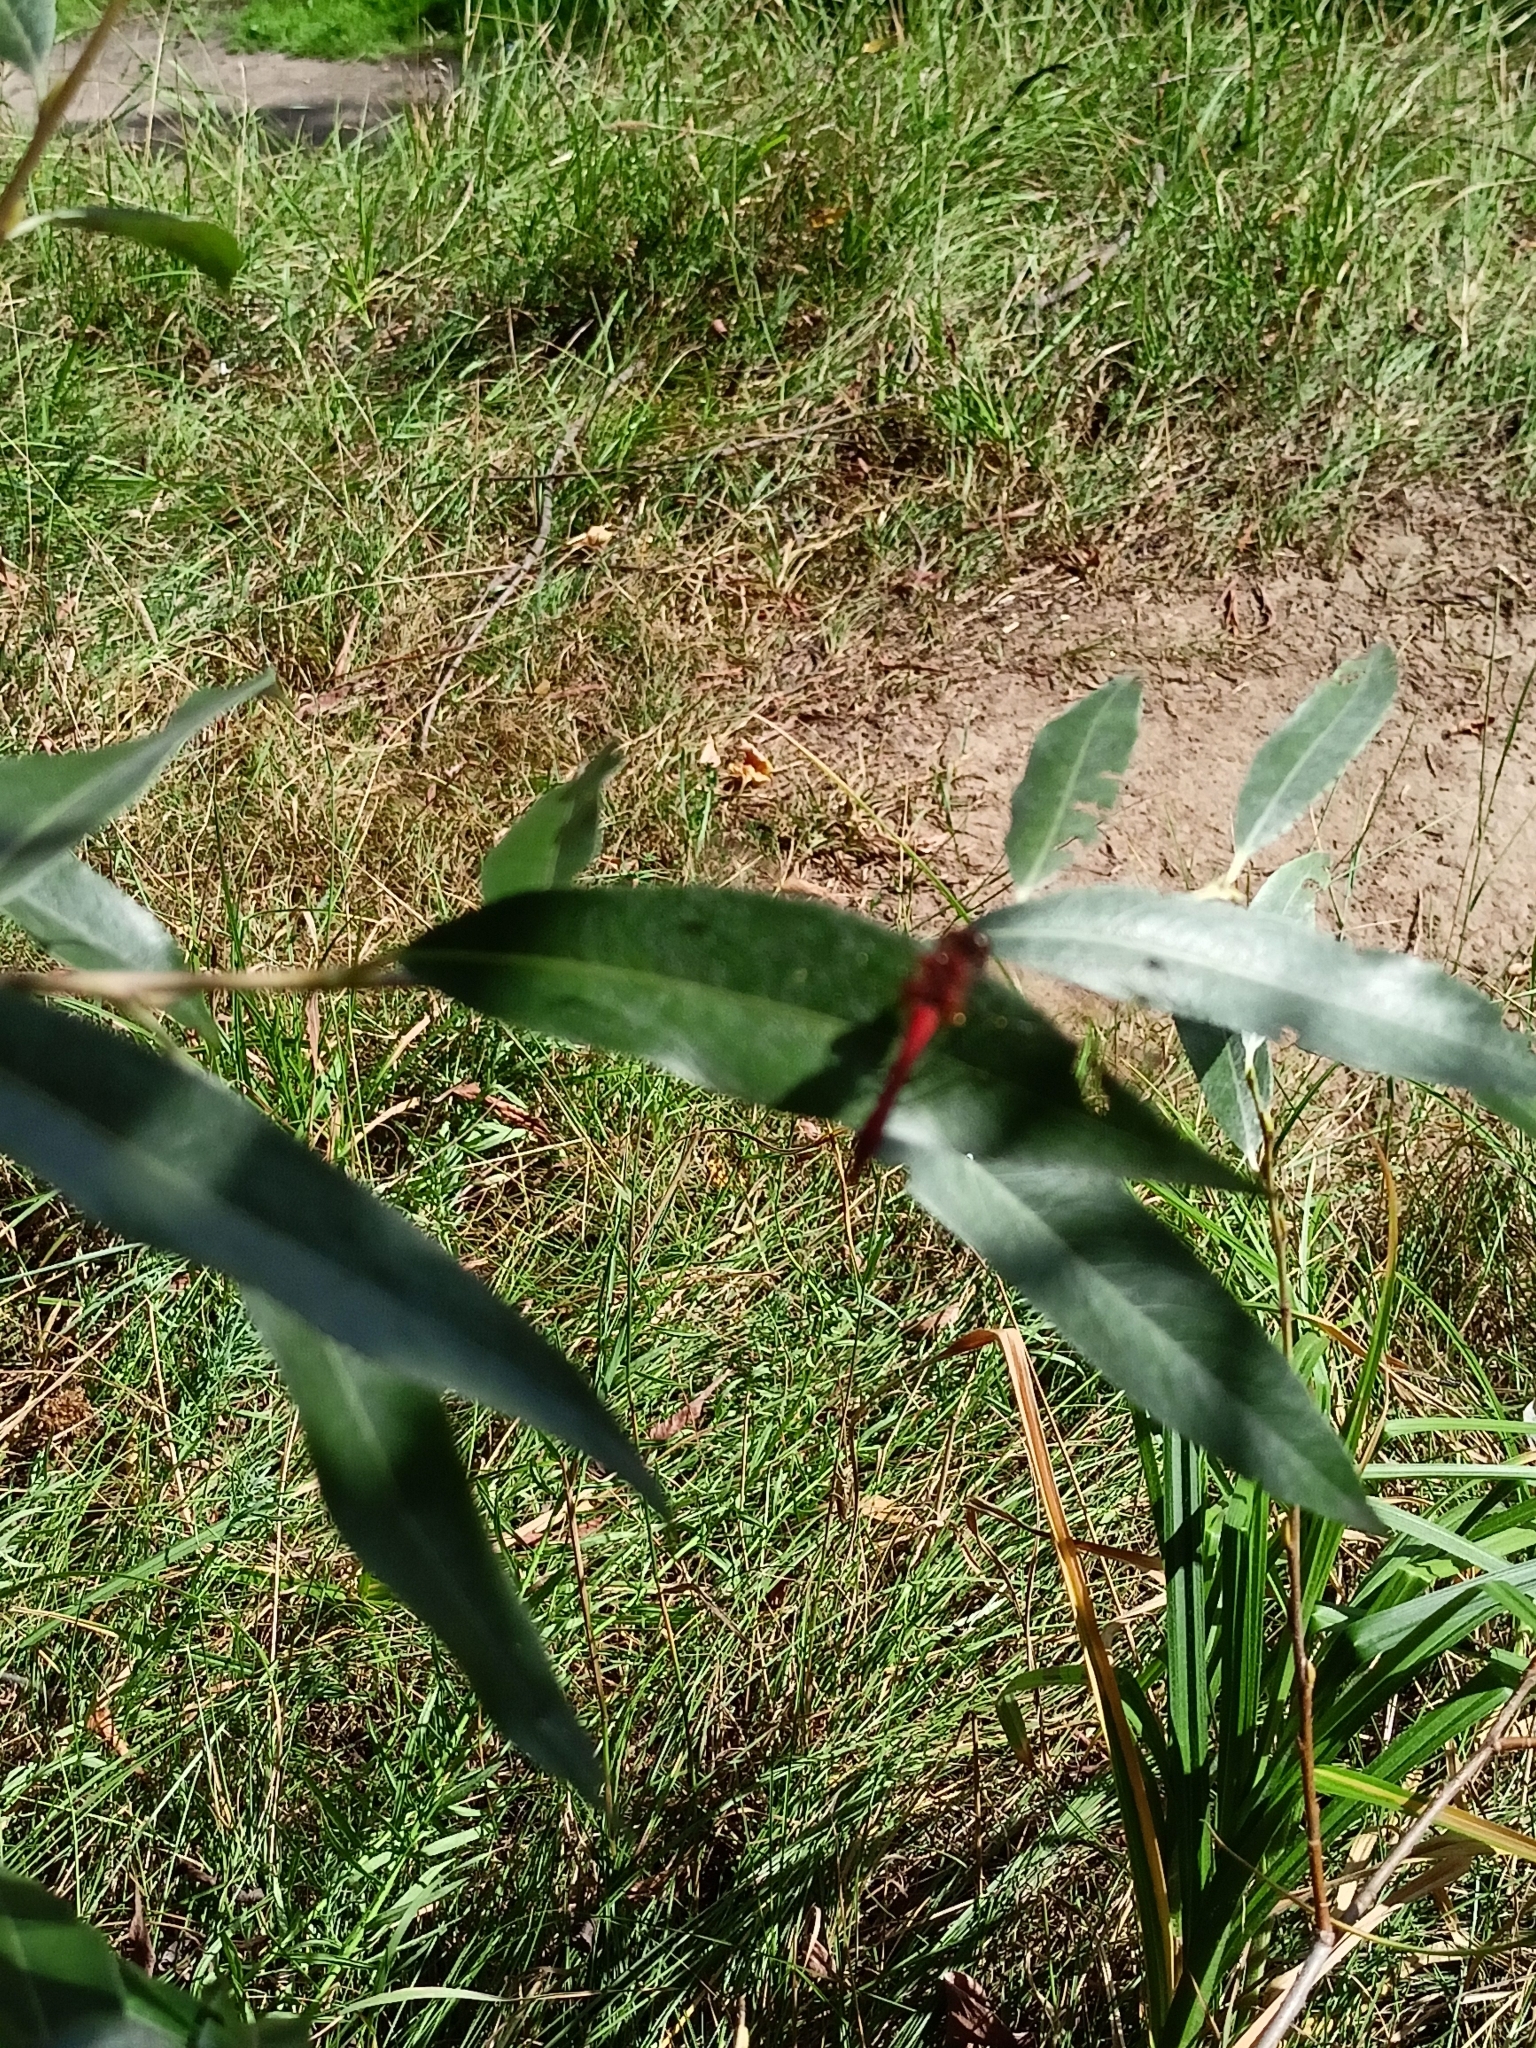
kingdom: Animalia
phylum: Arthropoda
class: Insecta
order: Odonata
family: Libellulidae
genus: Sympetrum
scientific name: Sympetrum sanguineum
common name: Ruddy darter
